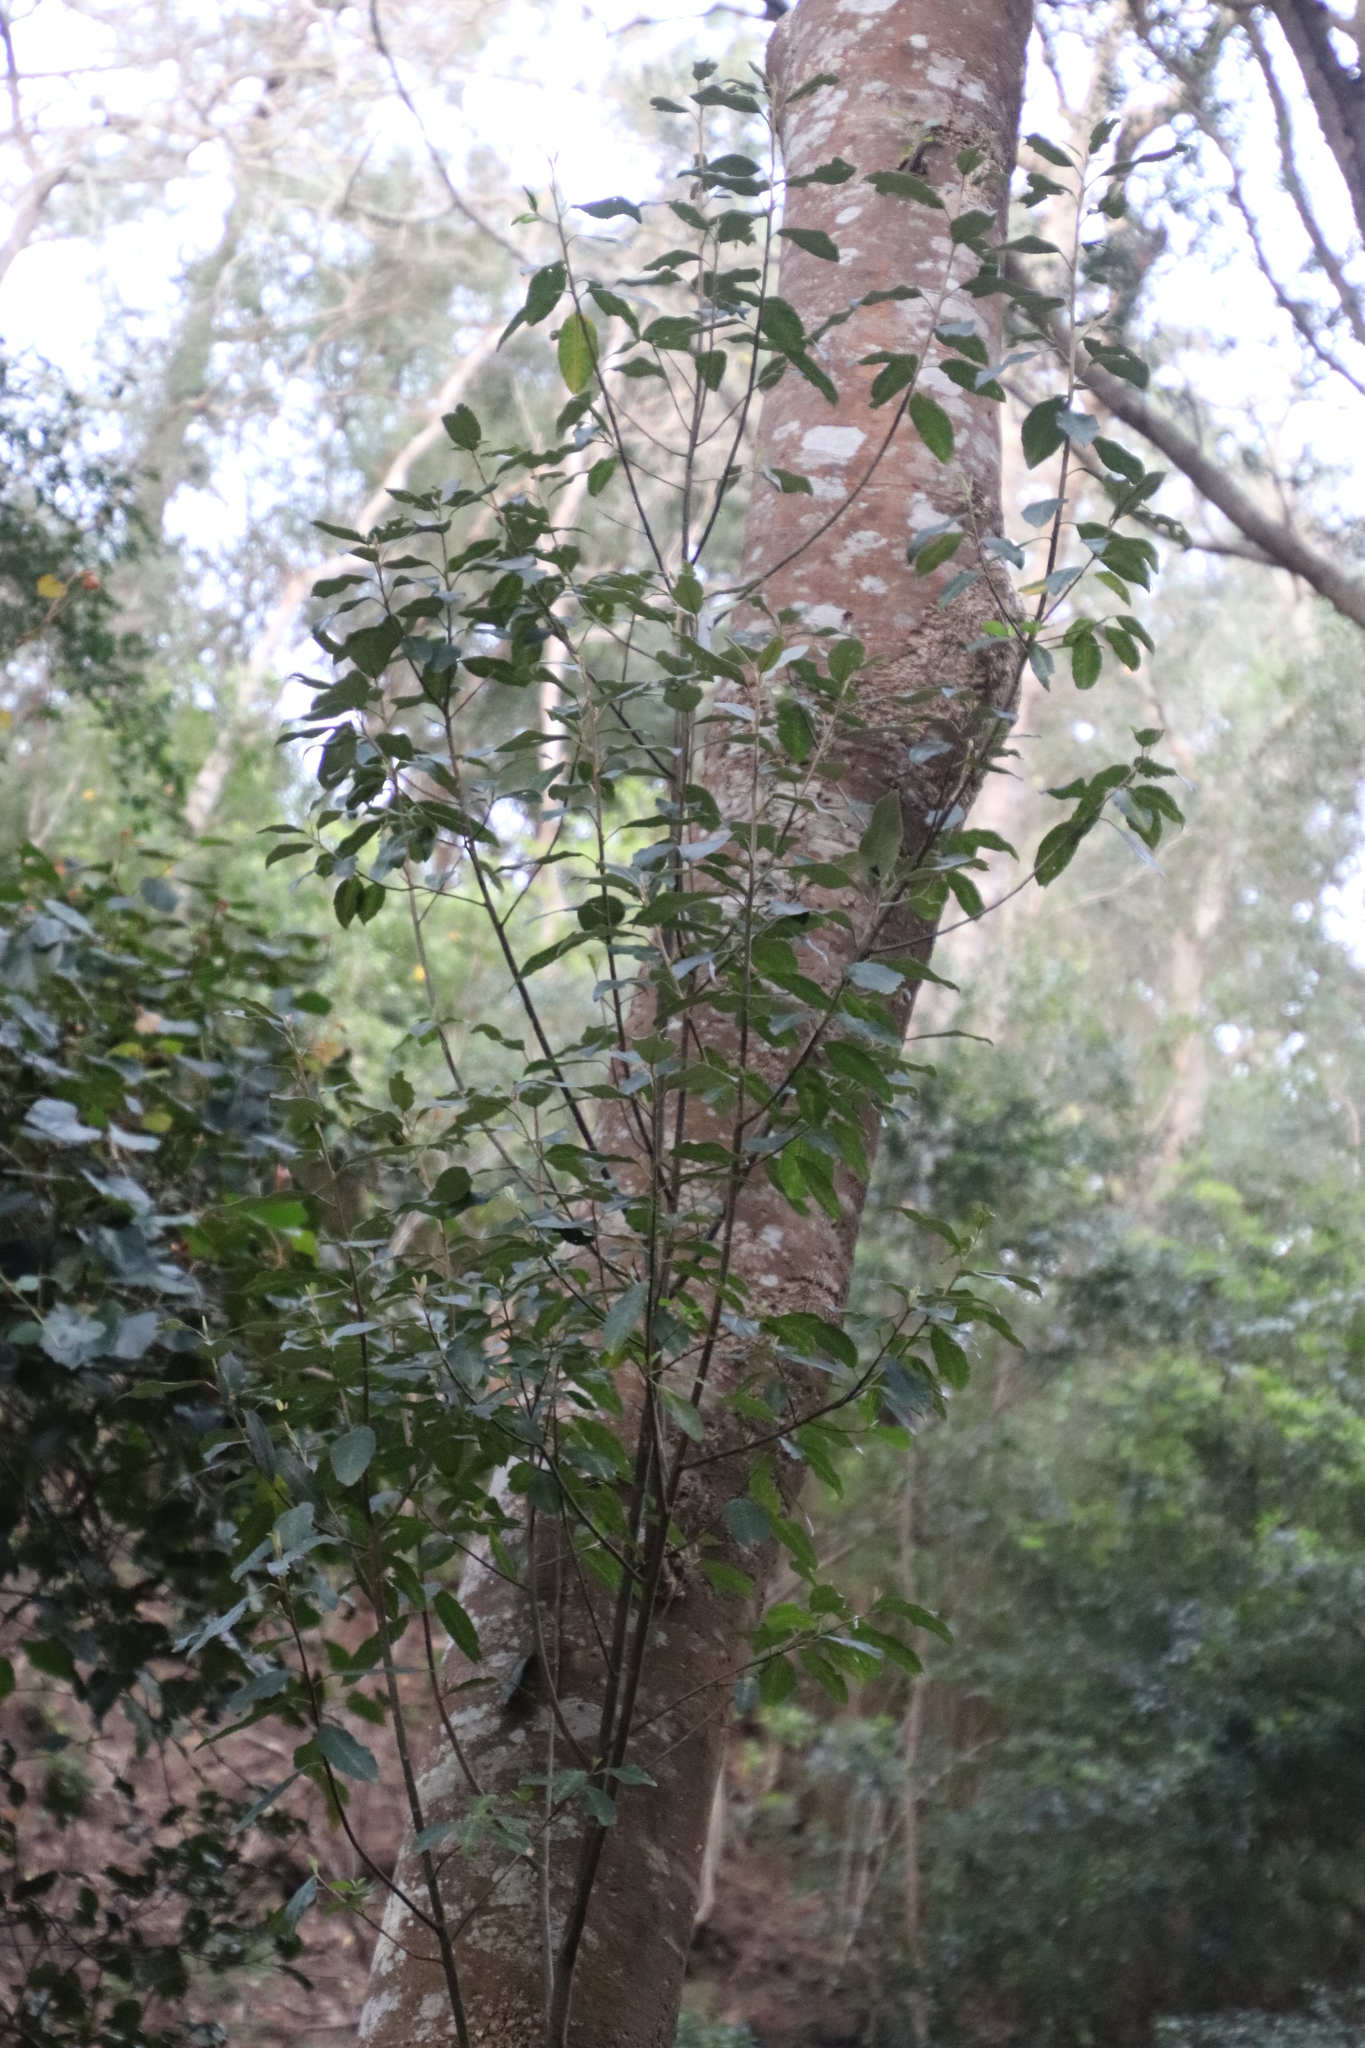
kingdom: Plantae
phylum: Tracheophyta
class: Magnoliopsida
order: Malpighiales
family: Achariaceae
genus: Kiggelaria
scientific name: Kiggelaria africana
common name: Wild peach
